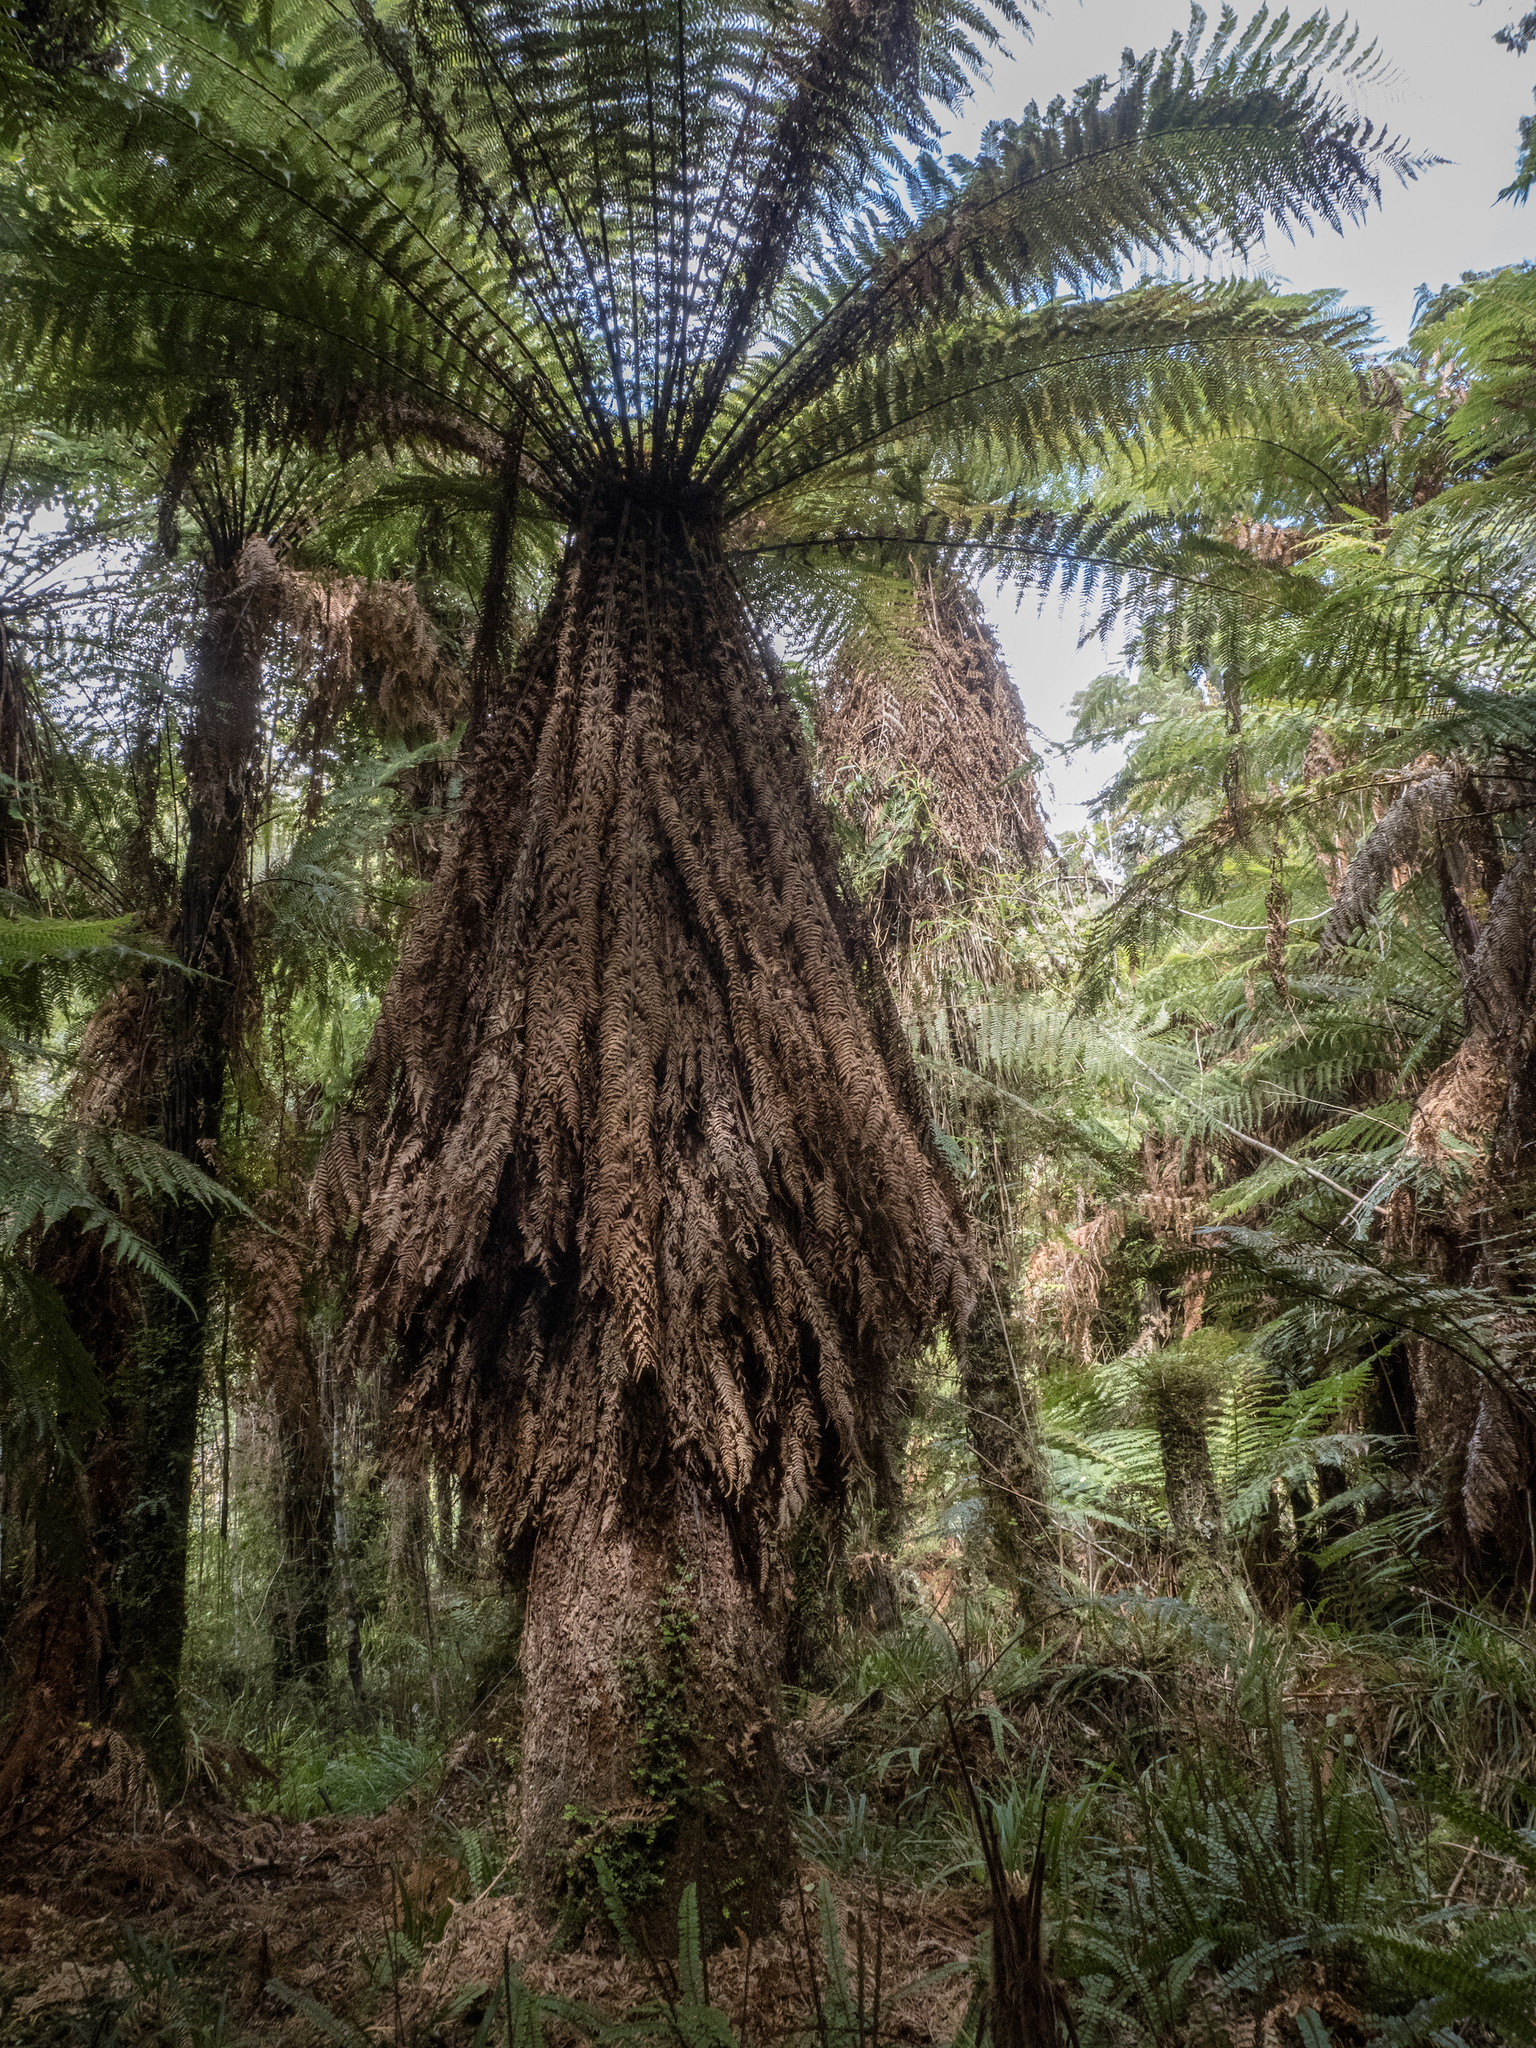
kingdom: Plantae
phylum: Tracheophyta
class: Polypodiopsida
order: Cyatheales
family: Dicksoniaceae
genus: Dicksonia
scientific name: Dicksonia fibrosa
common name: Golden tree fern
